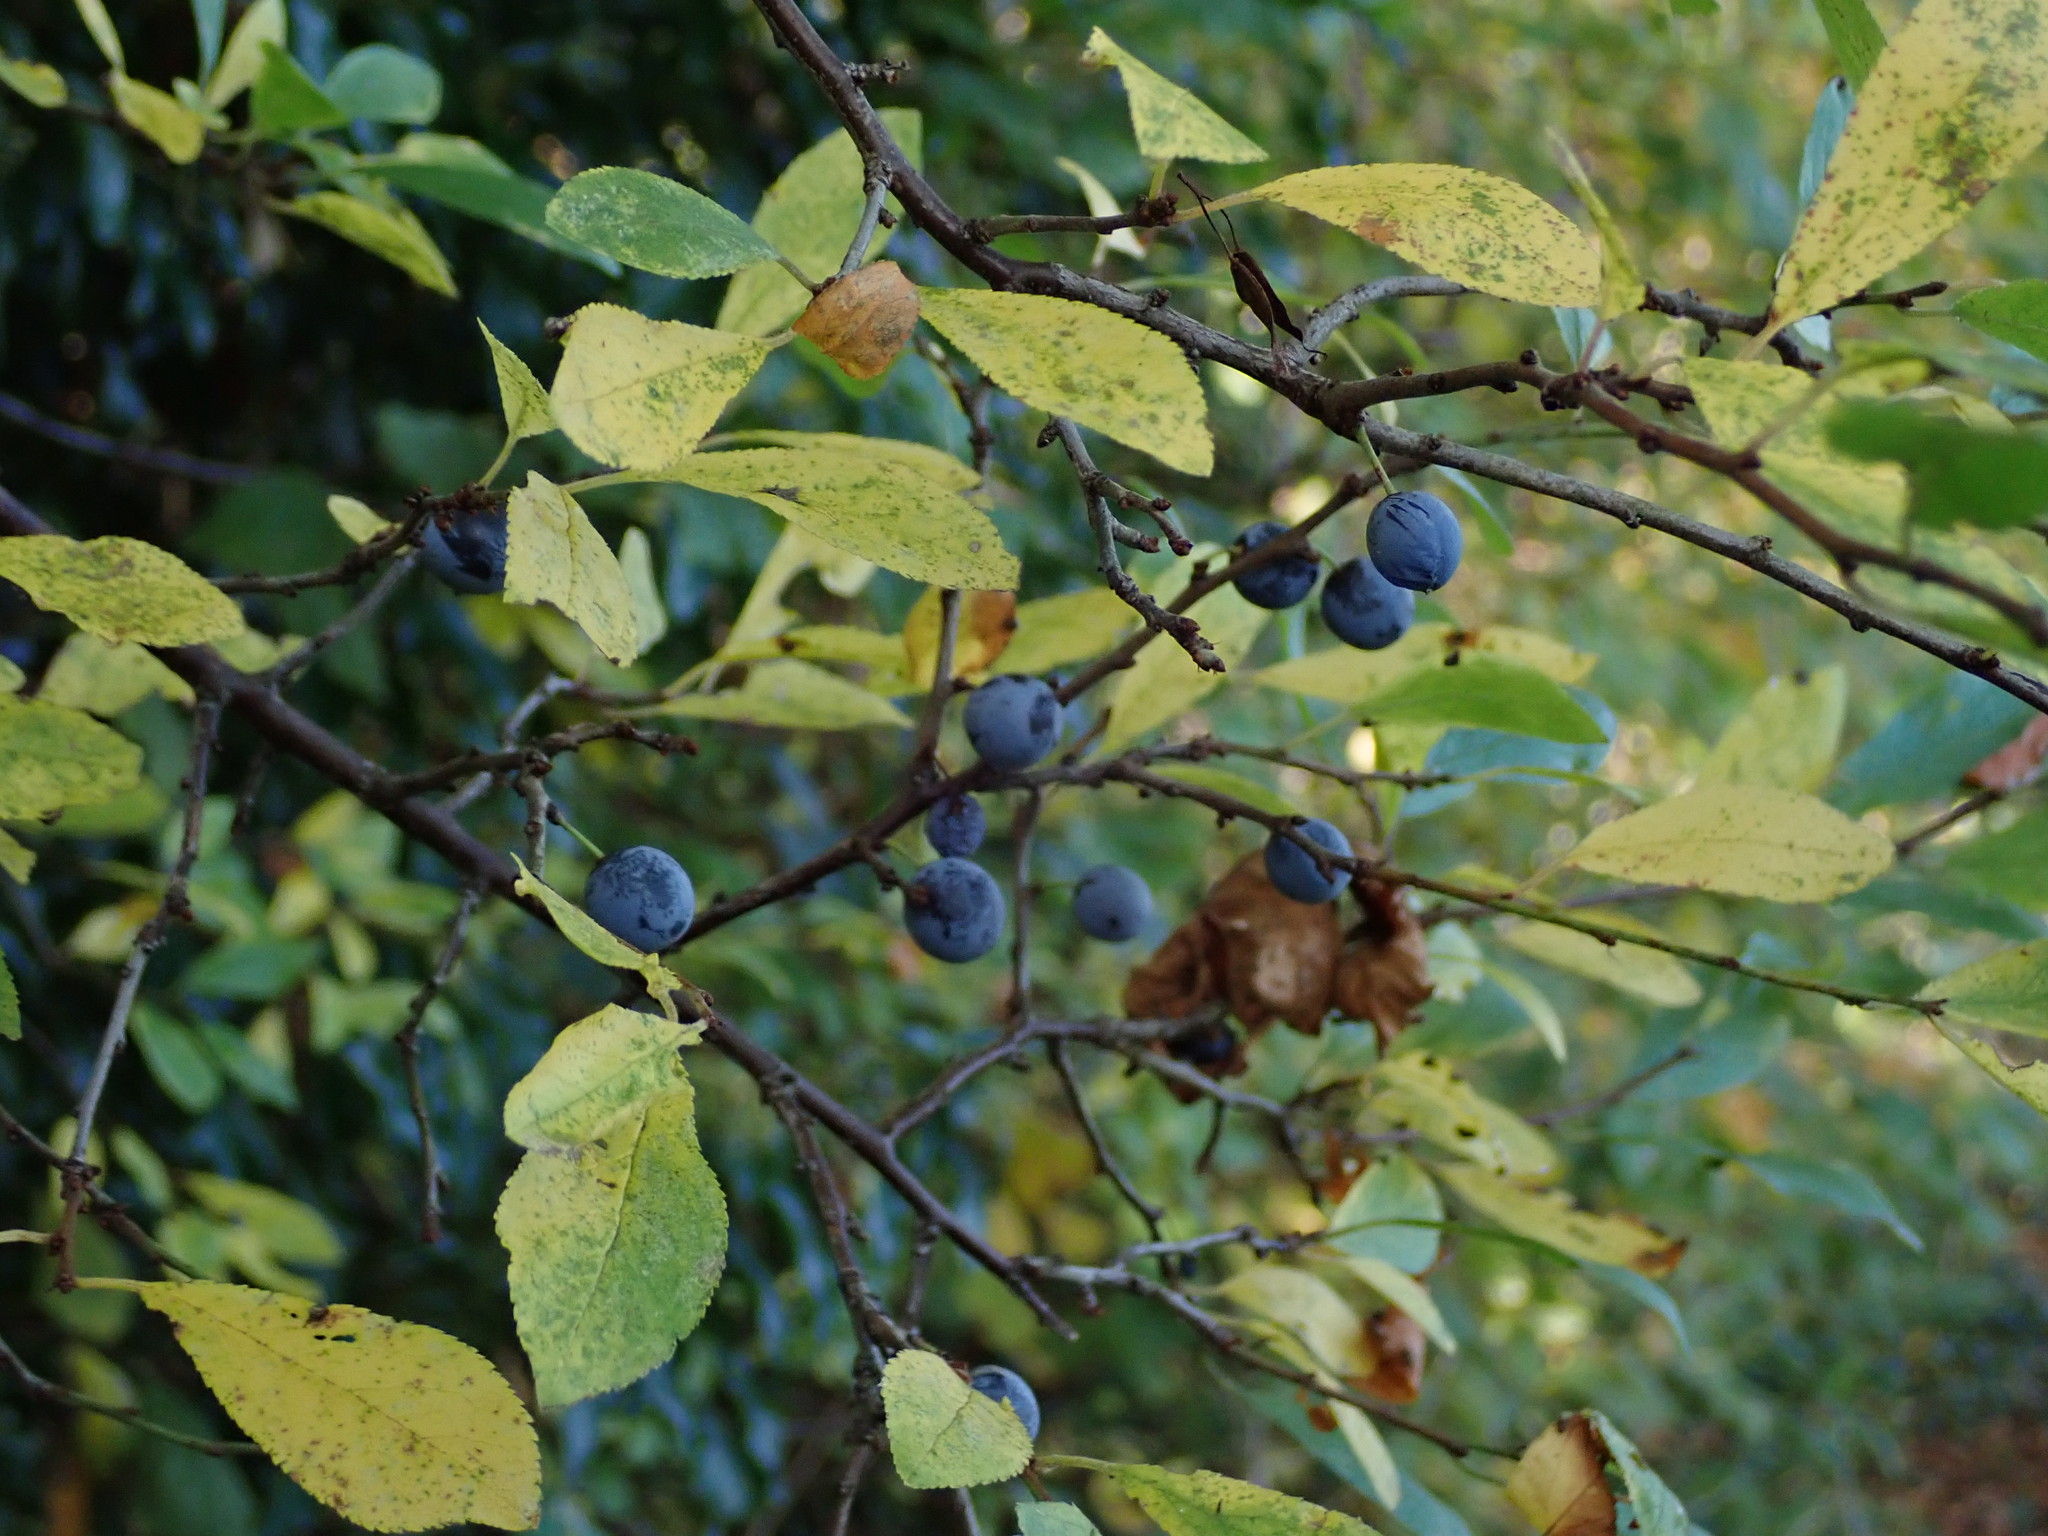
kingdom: Plantae
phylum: Tracheophyta
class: Magnoliopsida
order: Rosales
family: Rosaceae
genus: Prunus
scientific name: Prunus spinosa
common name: Blackthorn
